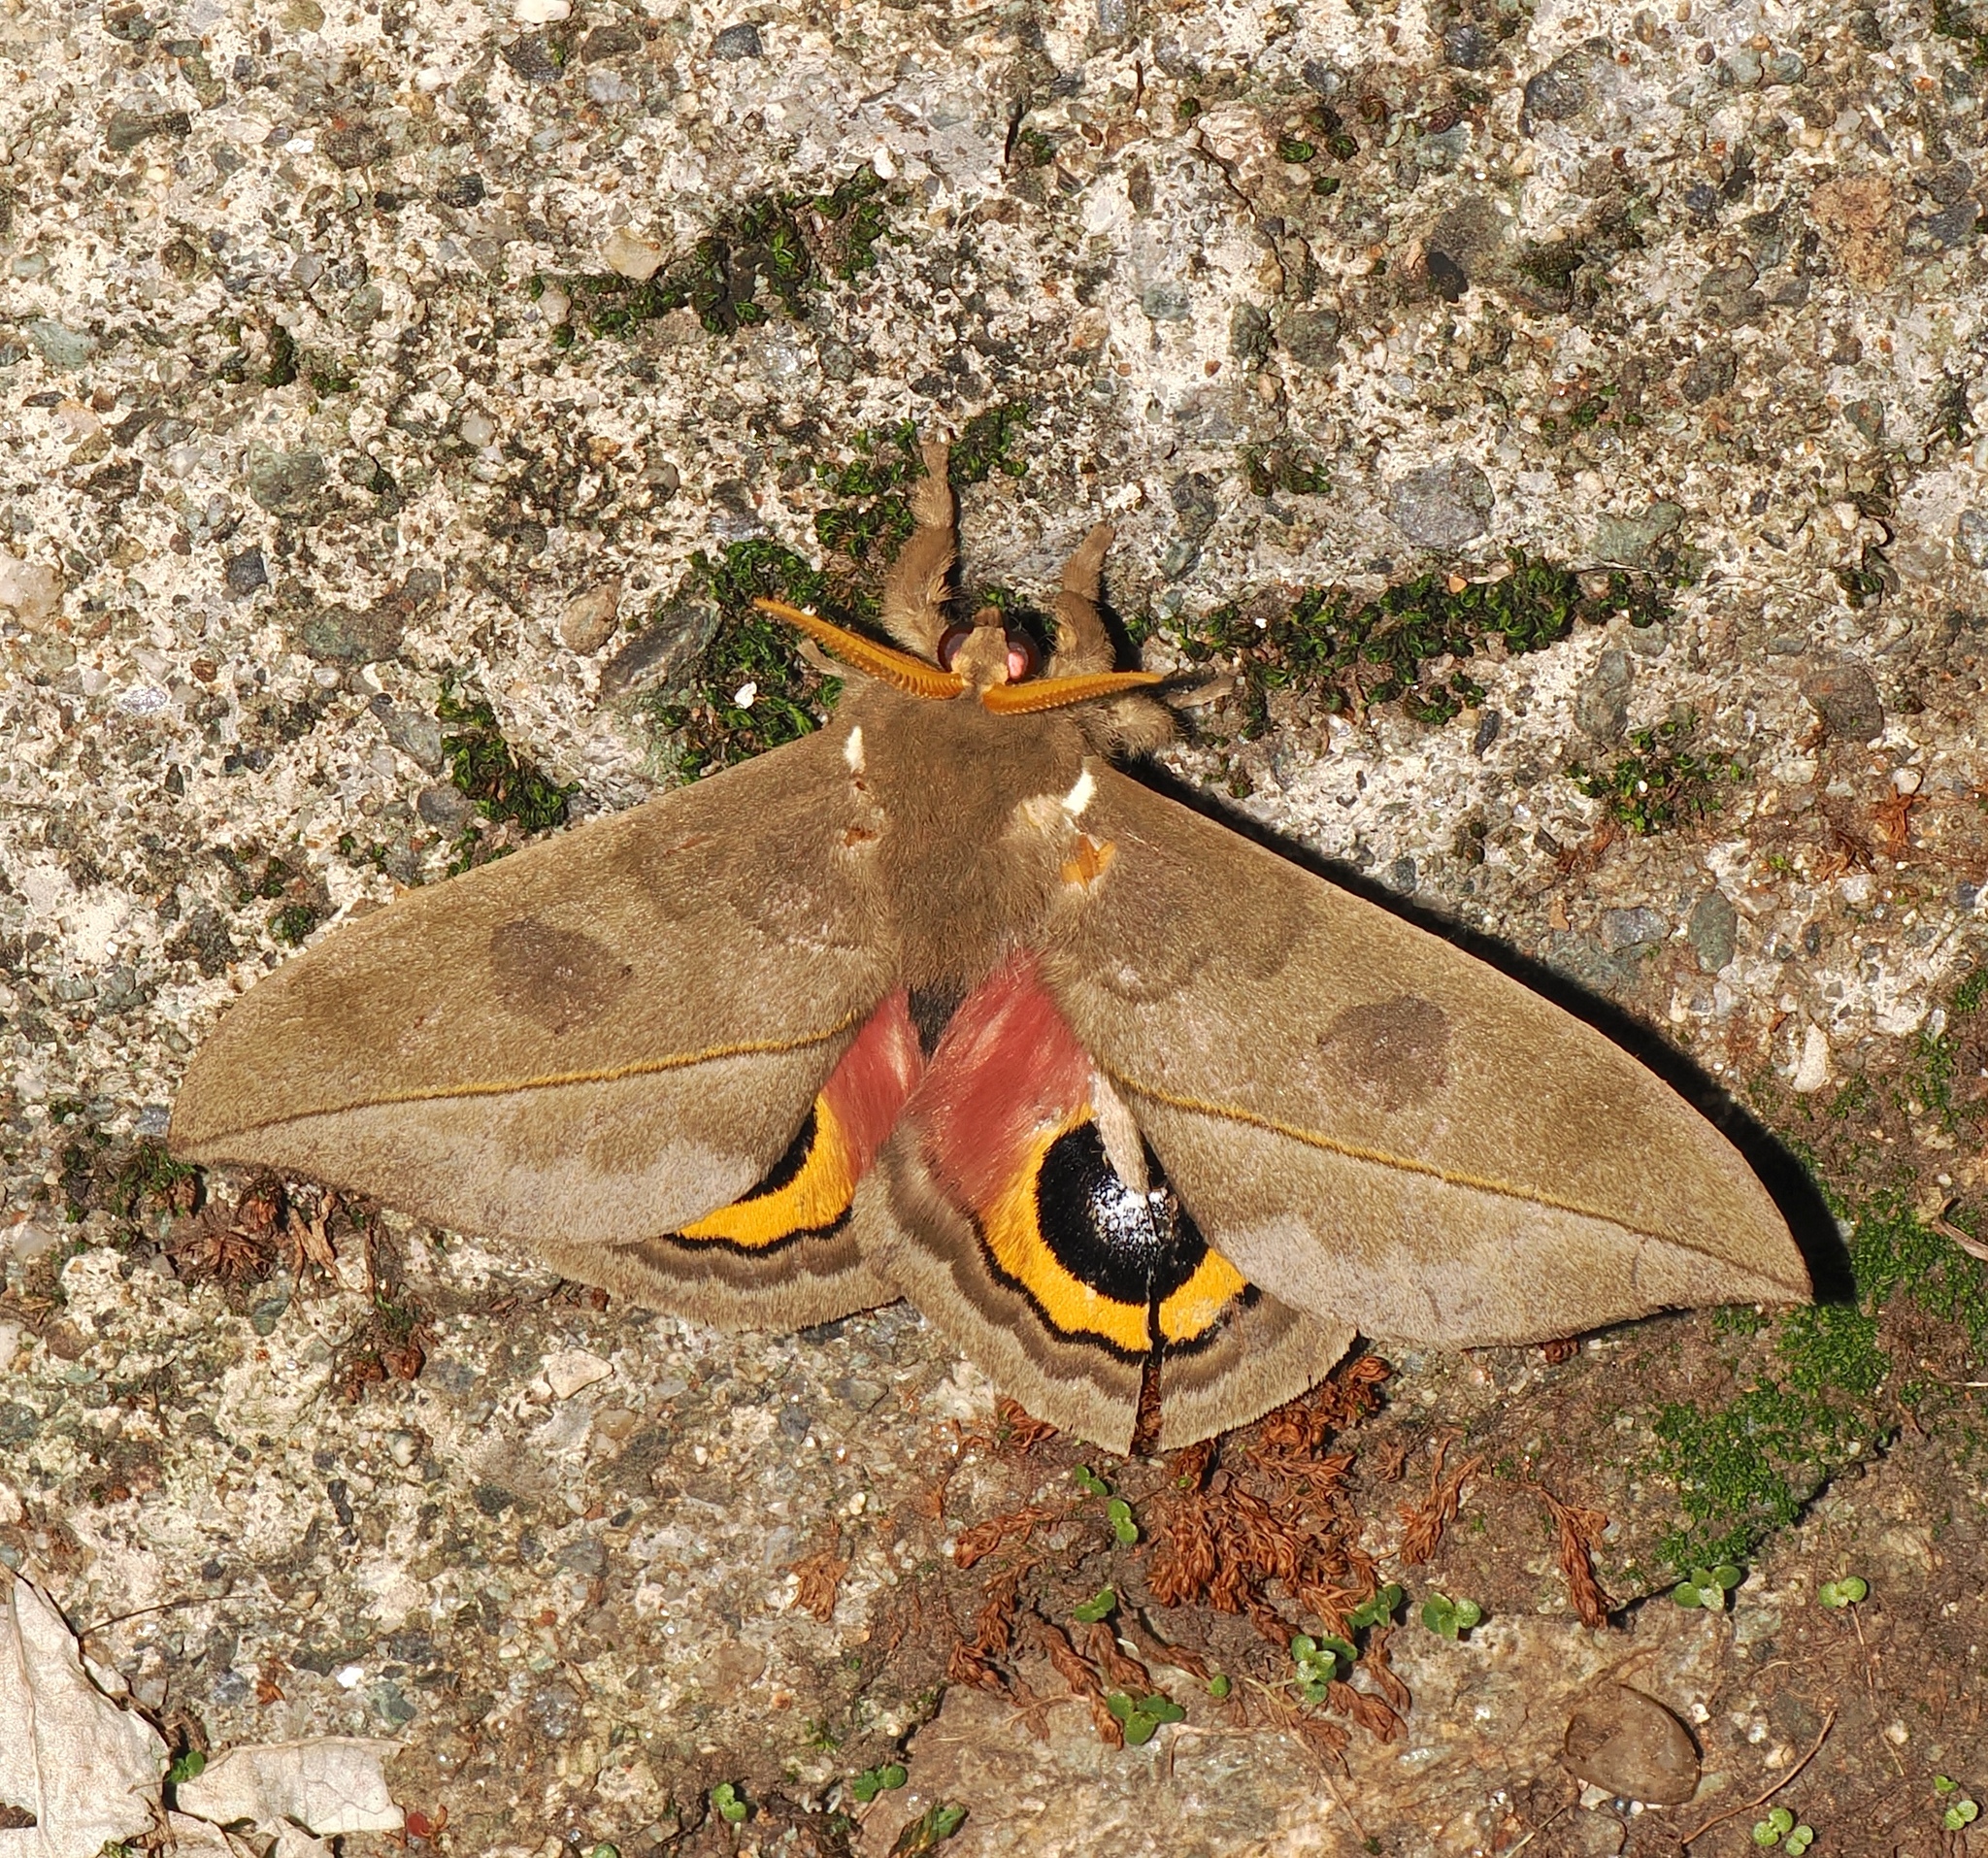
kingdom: Animalia
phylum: Arthropoda
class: Insecta
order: Lepidoptera
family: Saturniidae
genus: Automeris
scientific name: Automeris parapichinchensis
